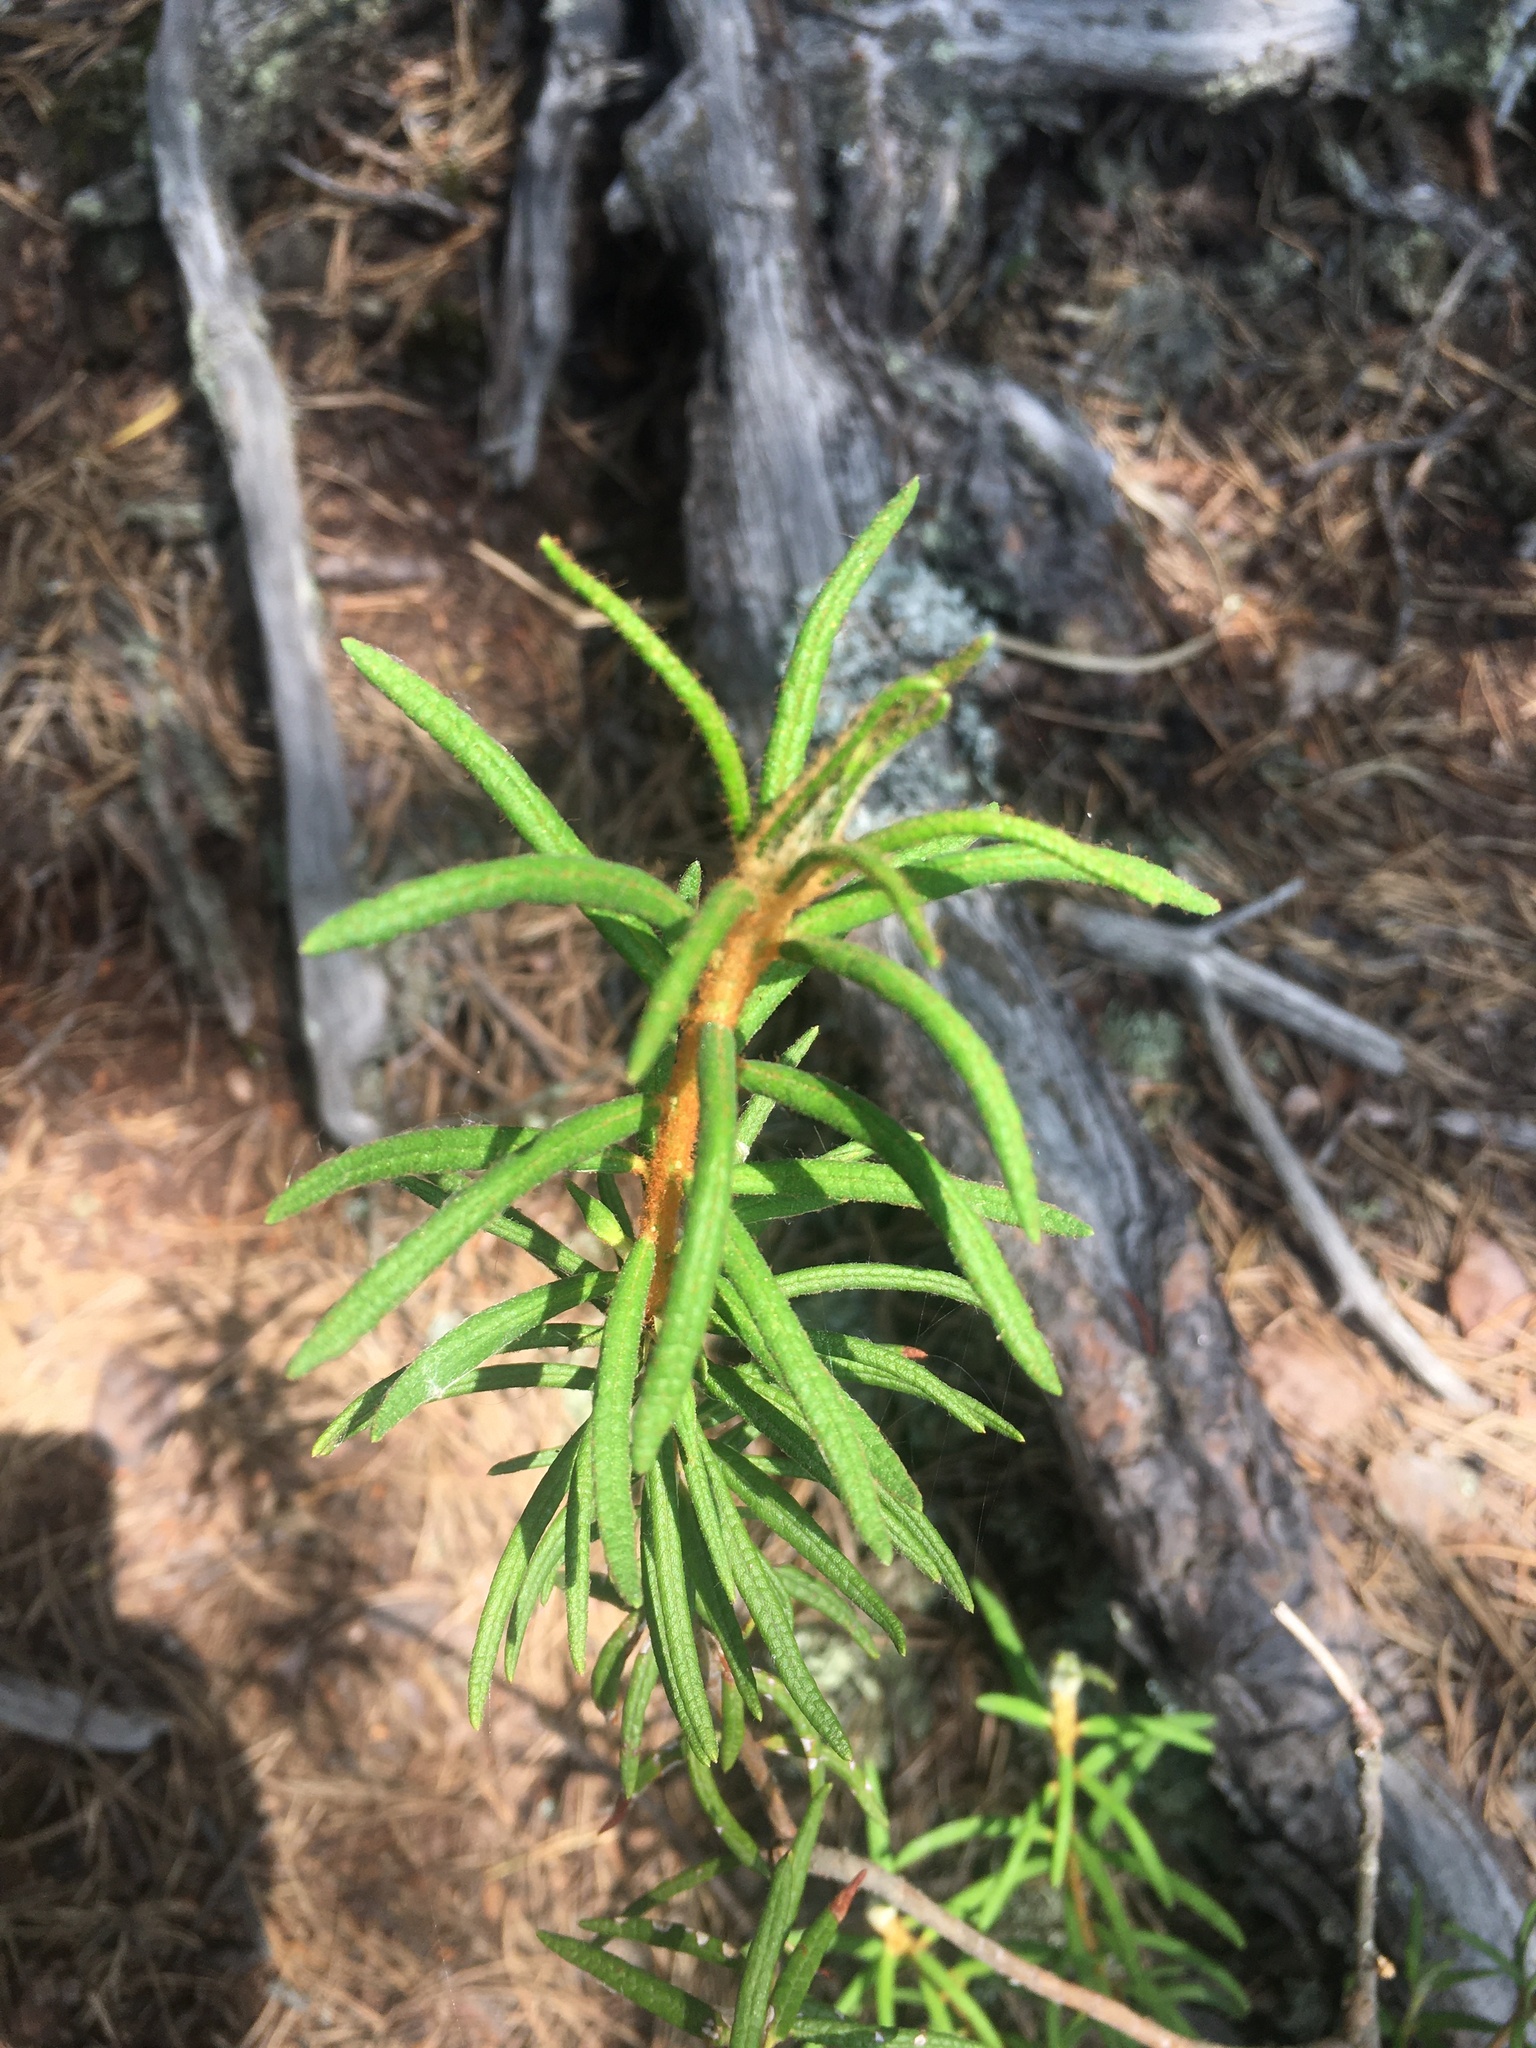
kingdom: Plantae
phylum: Tracheophyta
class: Magnoliopsida
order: Ericales
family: Ericaceae
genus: Rhododendron
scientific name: Rhododendron tomentosum
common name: Marsh labrador tea
